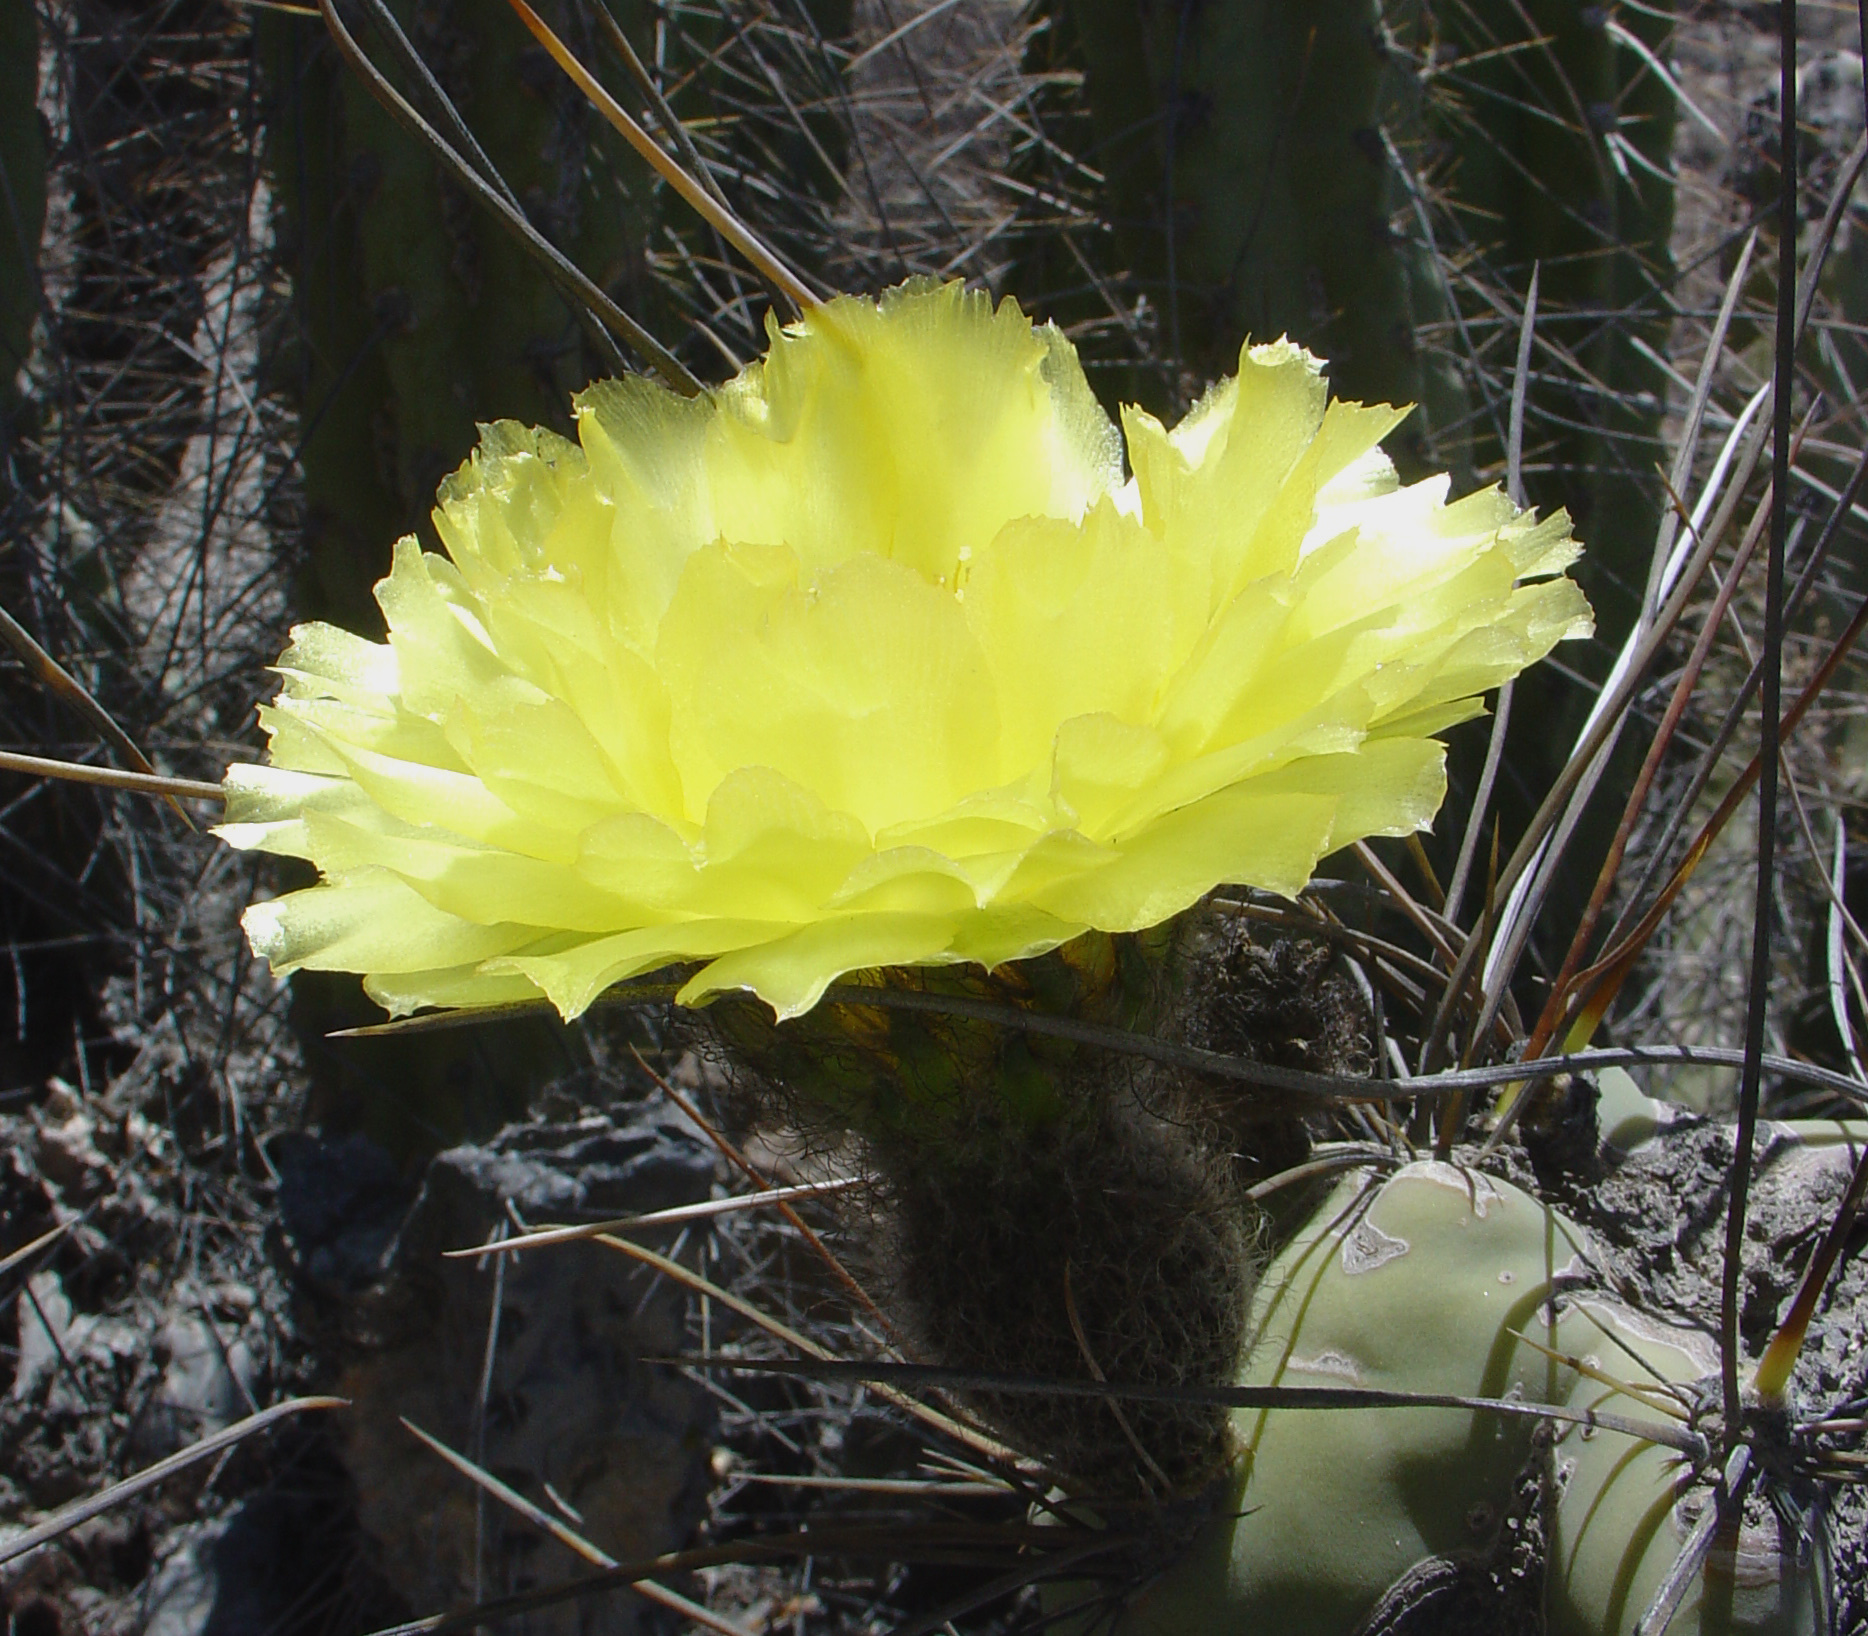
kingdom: Plantae
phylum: Tracheophyta
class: Magnoliopsida
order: Caryophyllales
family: Cactaceae
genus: Corryocactus
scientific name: Corryocactus brevistylus
